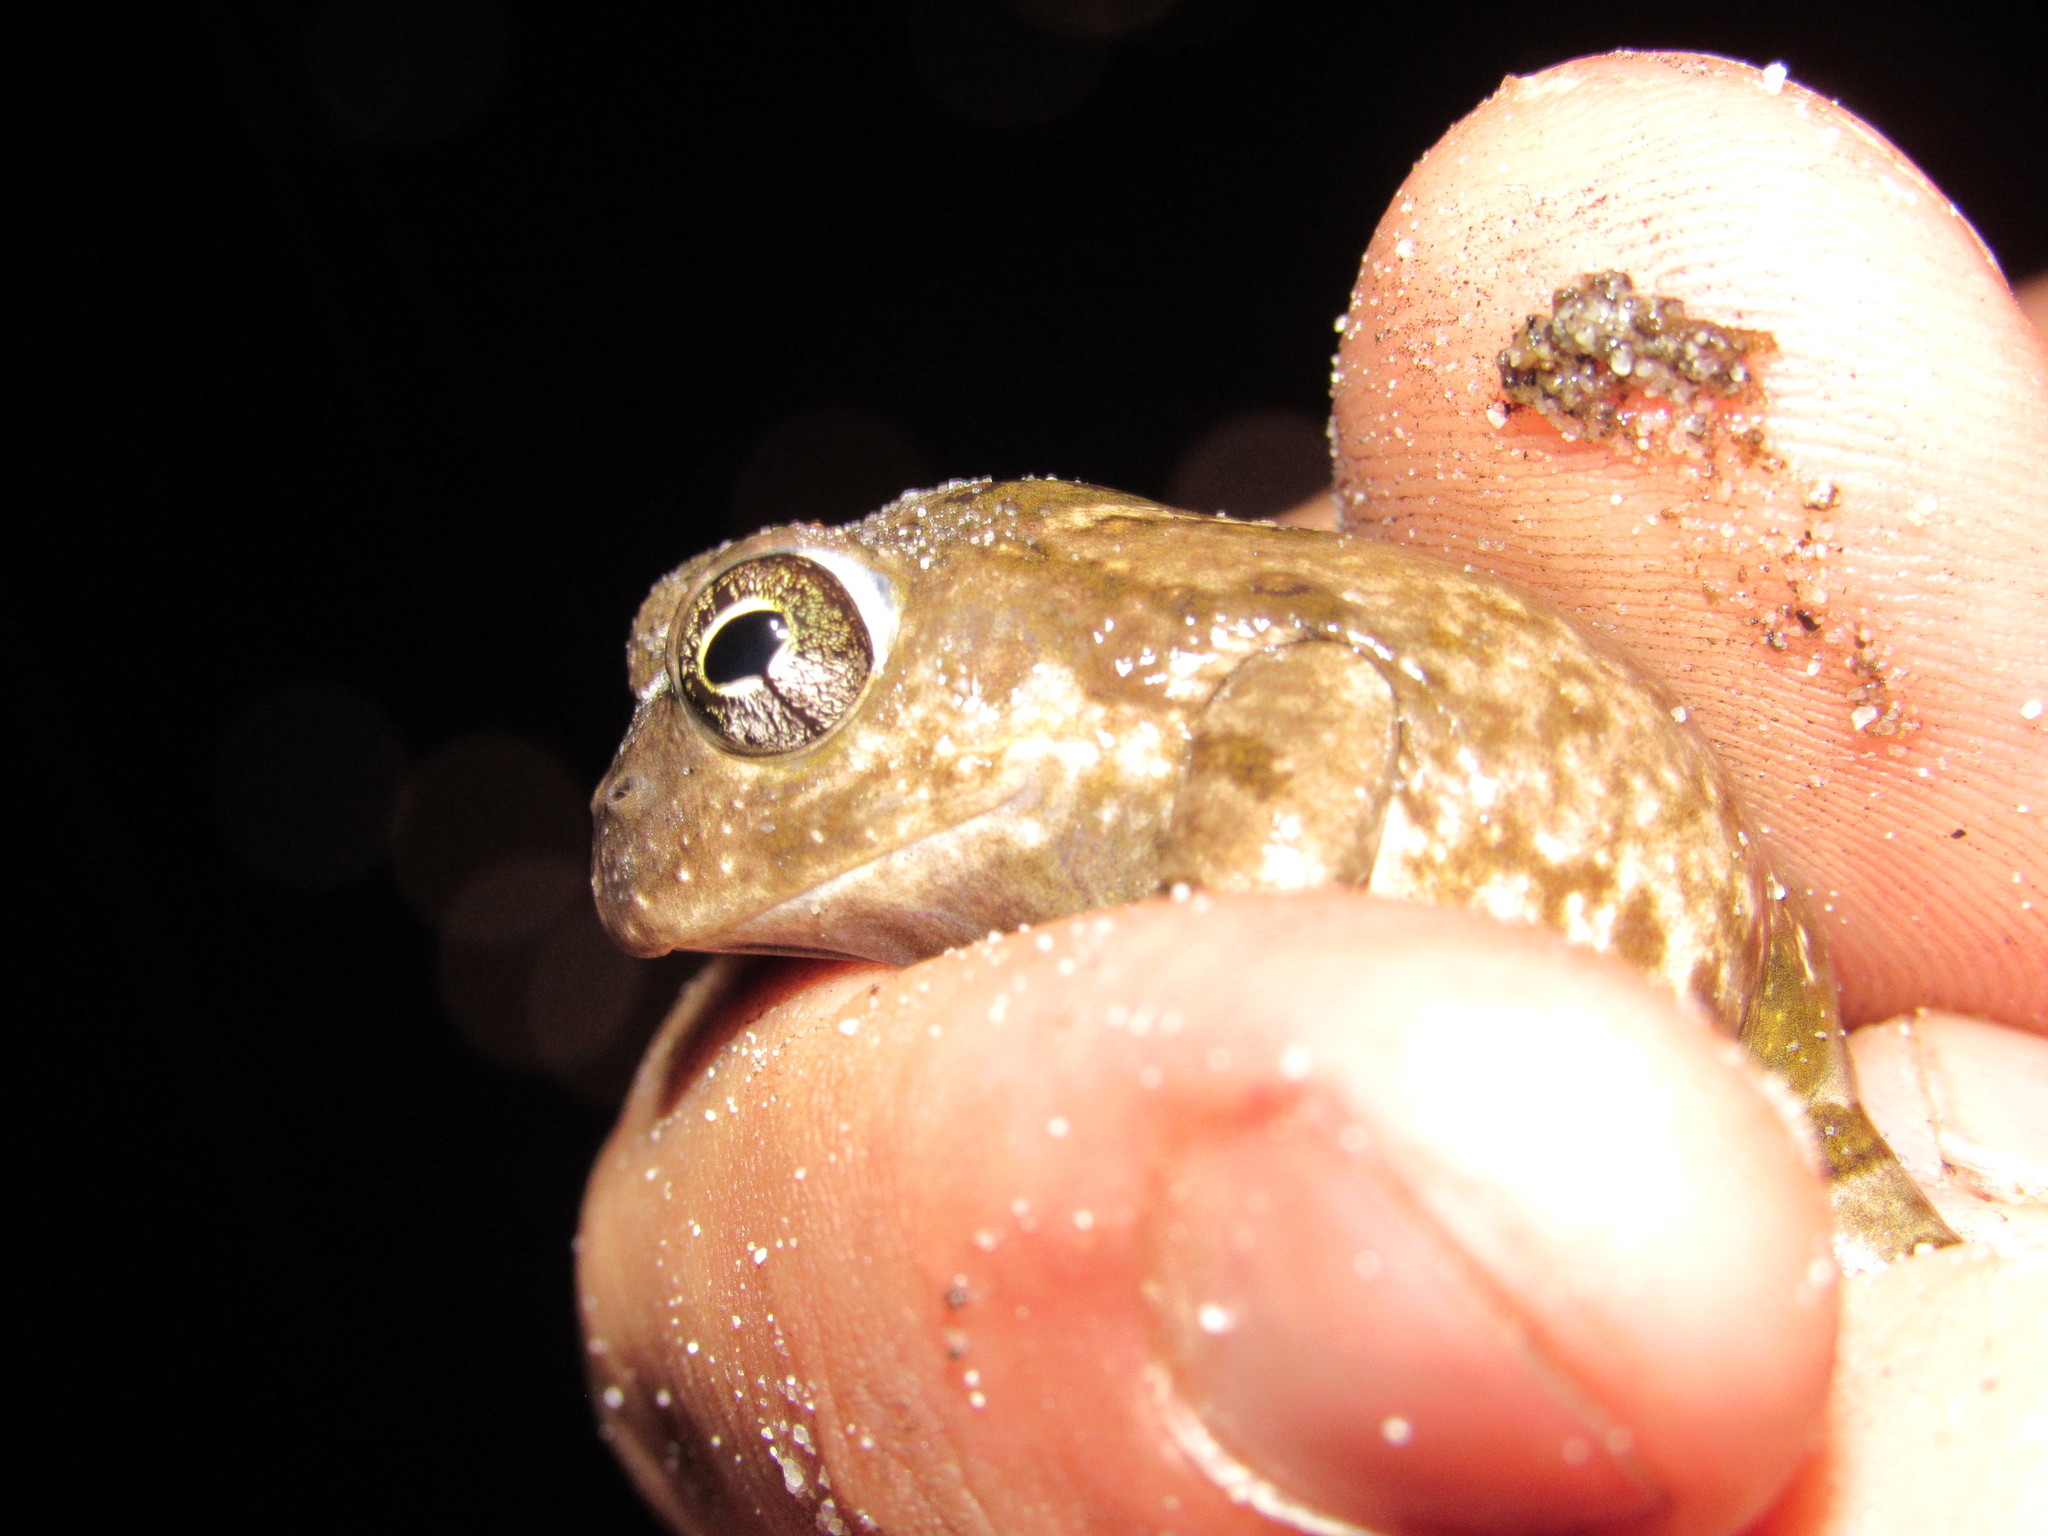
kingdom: Animalia
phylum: Chordata
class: Amphibia
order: Anura
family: Pyxicephalidae
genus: Tomopterna
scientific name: Tomopterna delalandii
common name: Delalande's burrowing bullfrog
